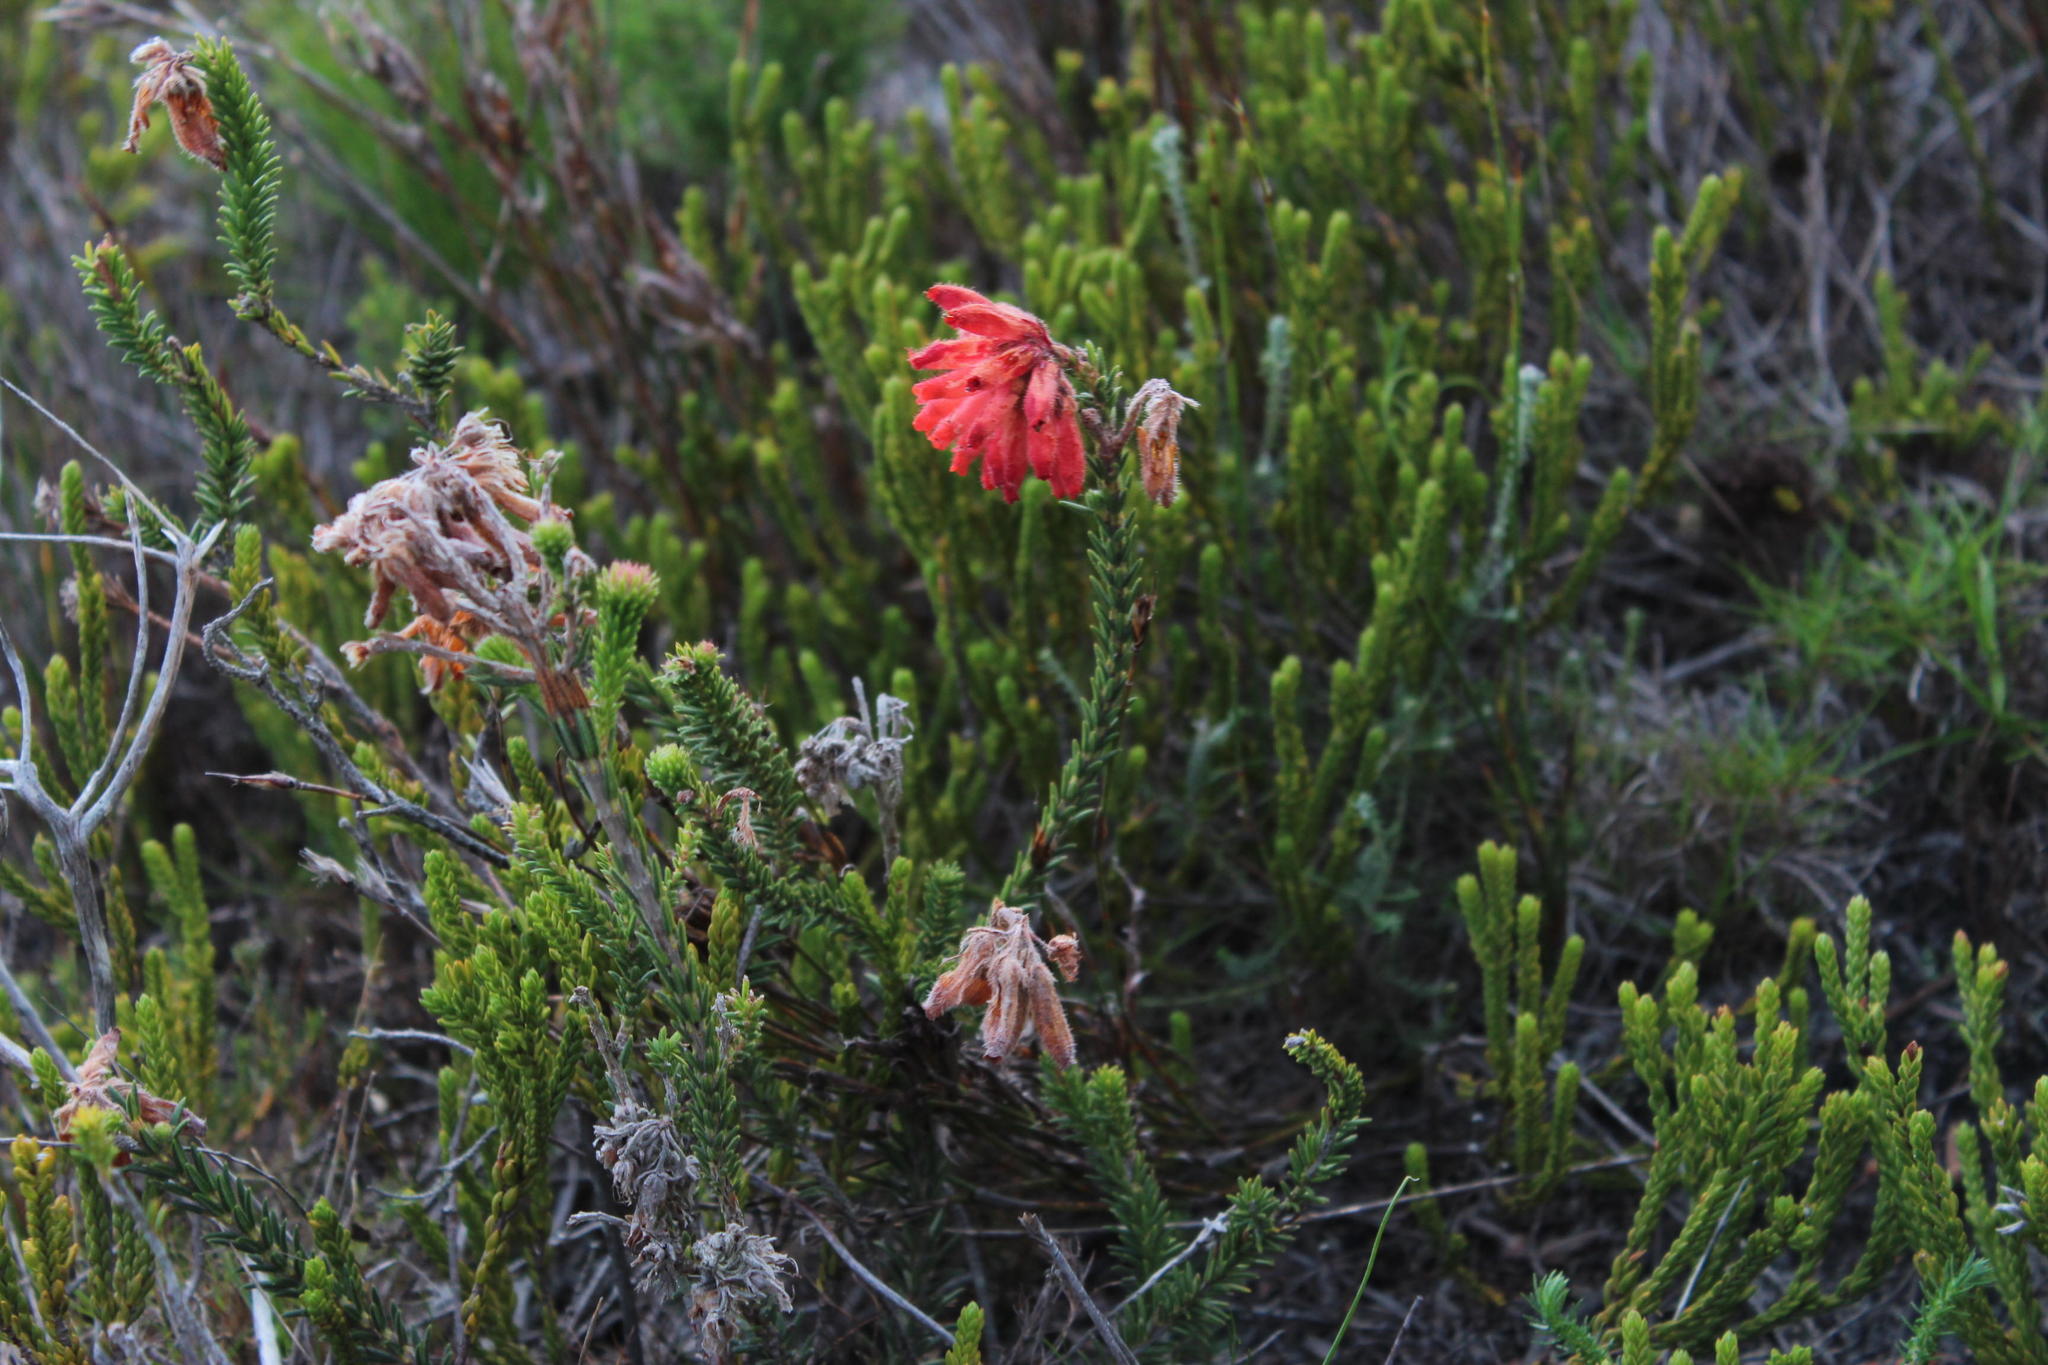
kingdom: Plantae
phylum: Tracheophyta
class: Magnoliopsida
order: Ericales
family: Ericaceae
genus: Erica
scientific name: Erica cerinthoides
